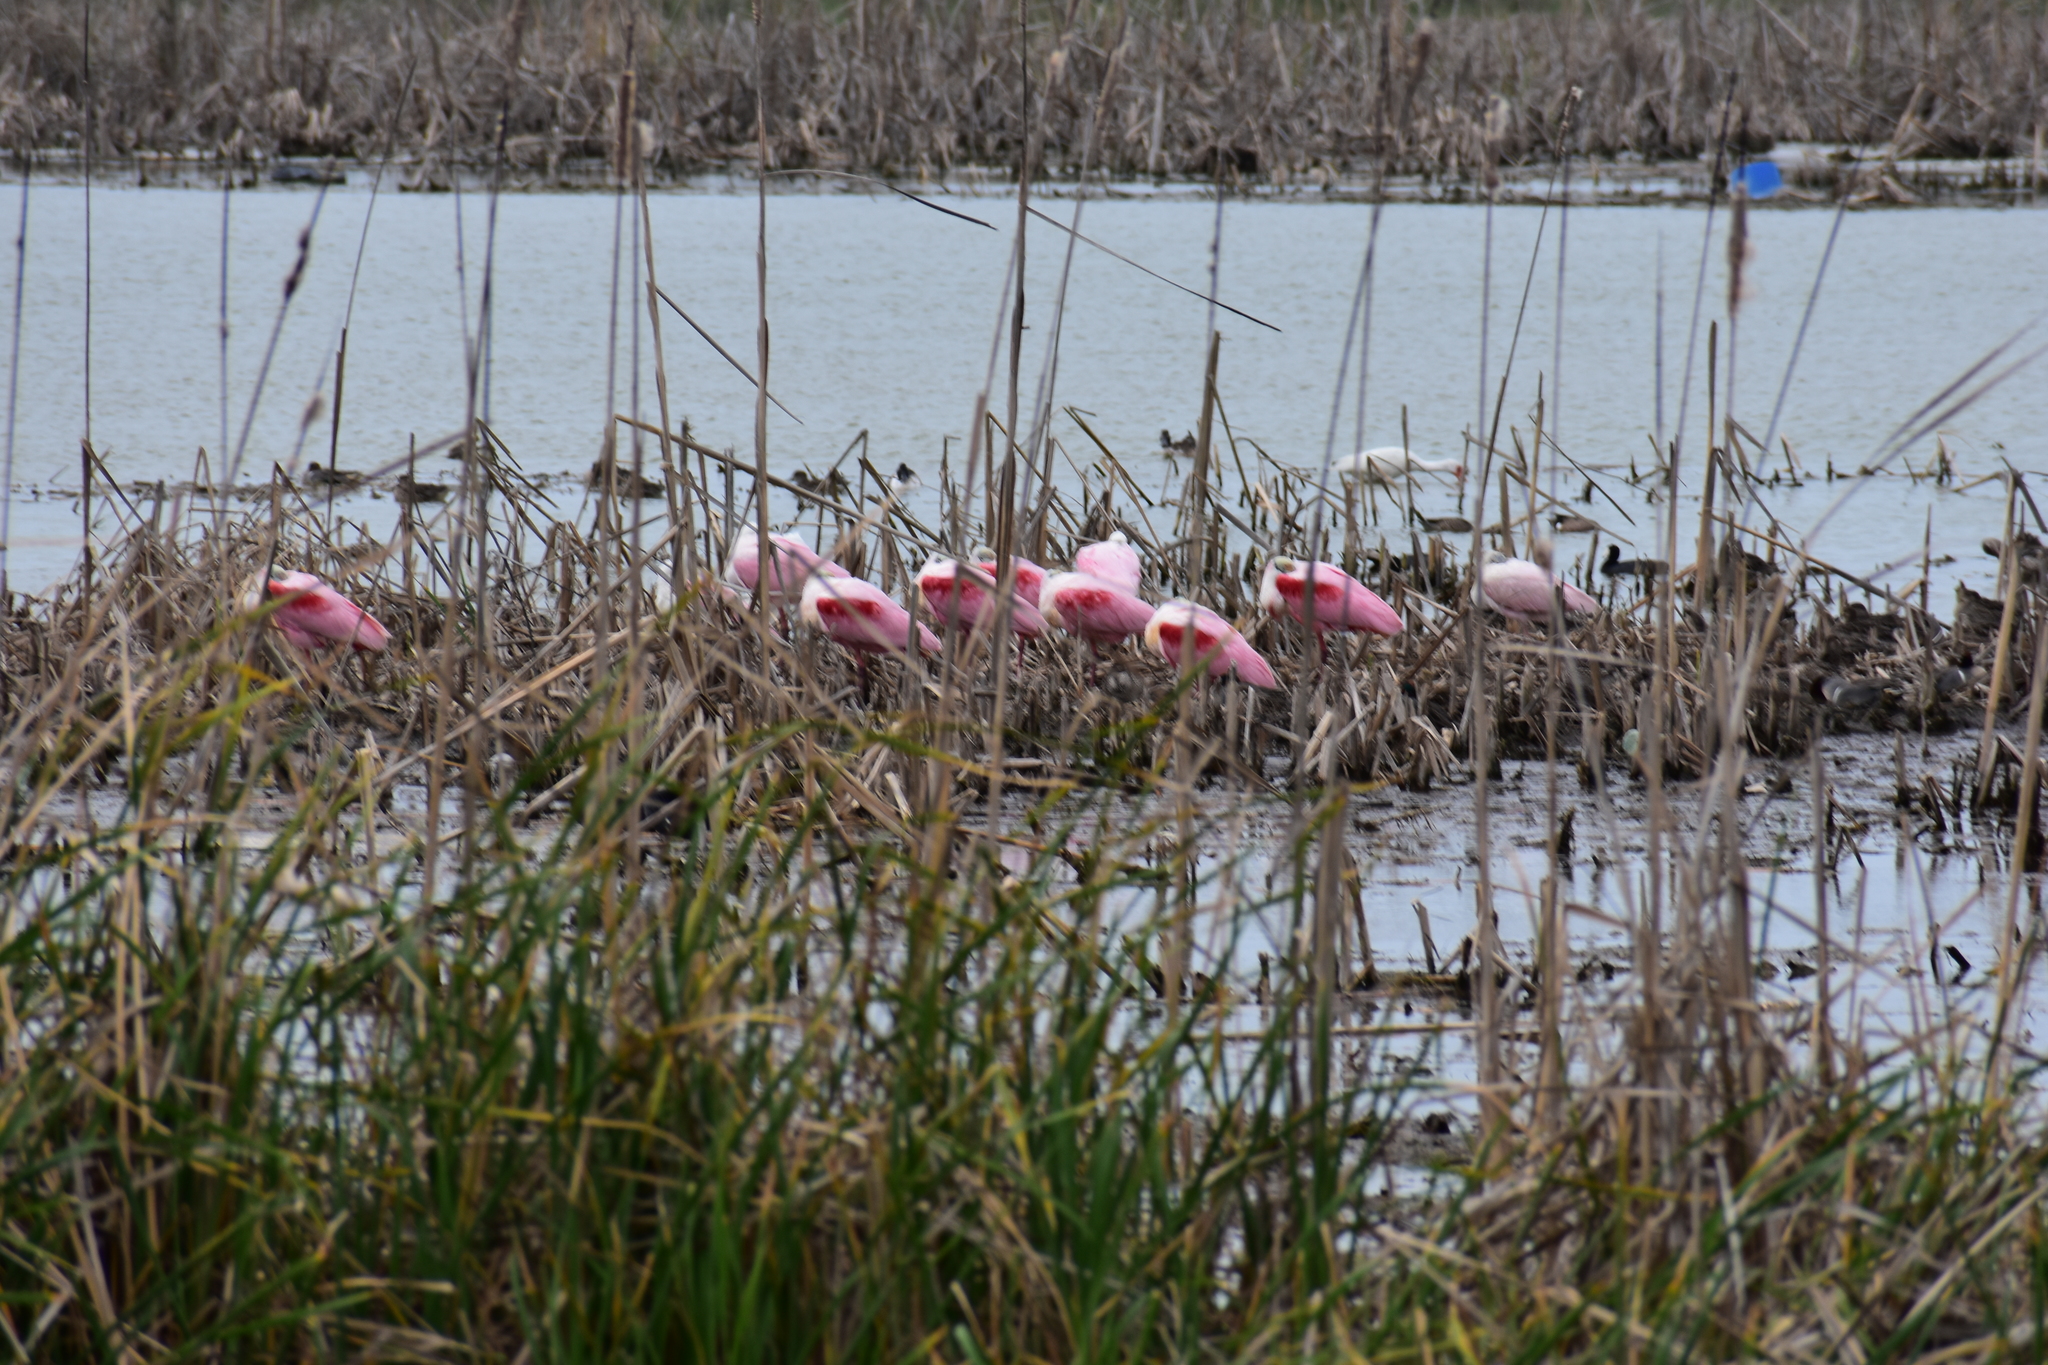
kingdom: Animalia
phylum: Chordata
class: Aves
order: Pelecaniformes
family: Threskiornithidae
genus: Eudocimus
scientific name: Eudocimus albus
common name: White ibis
